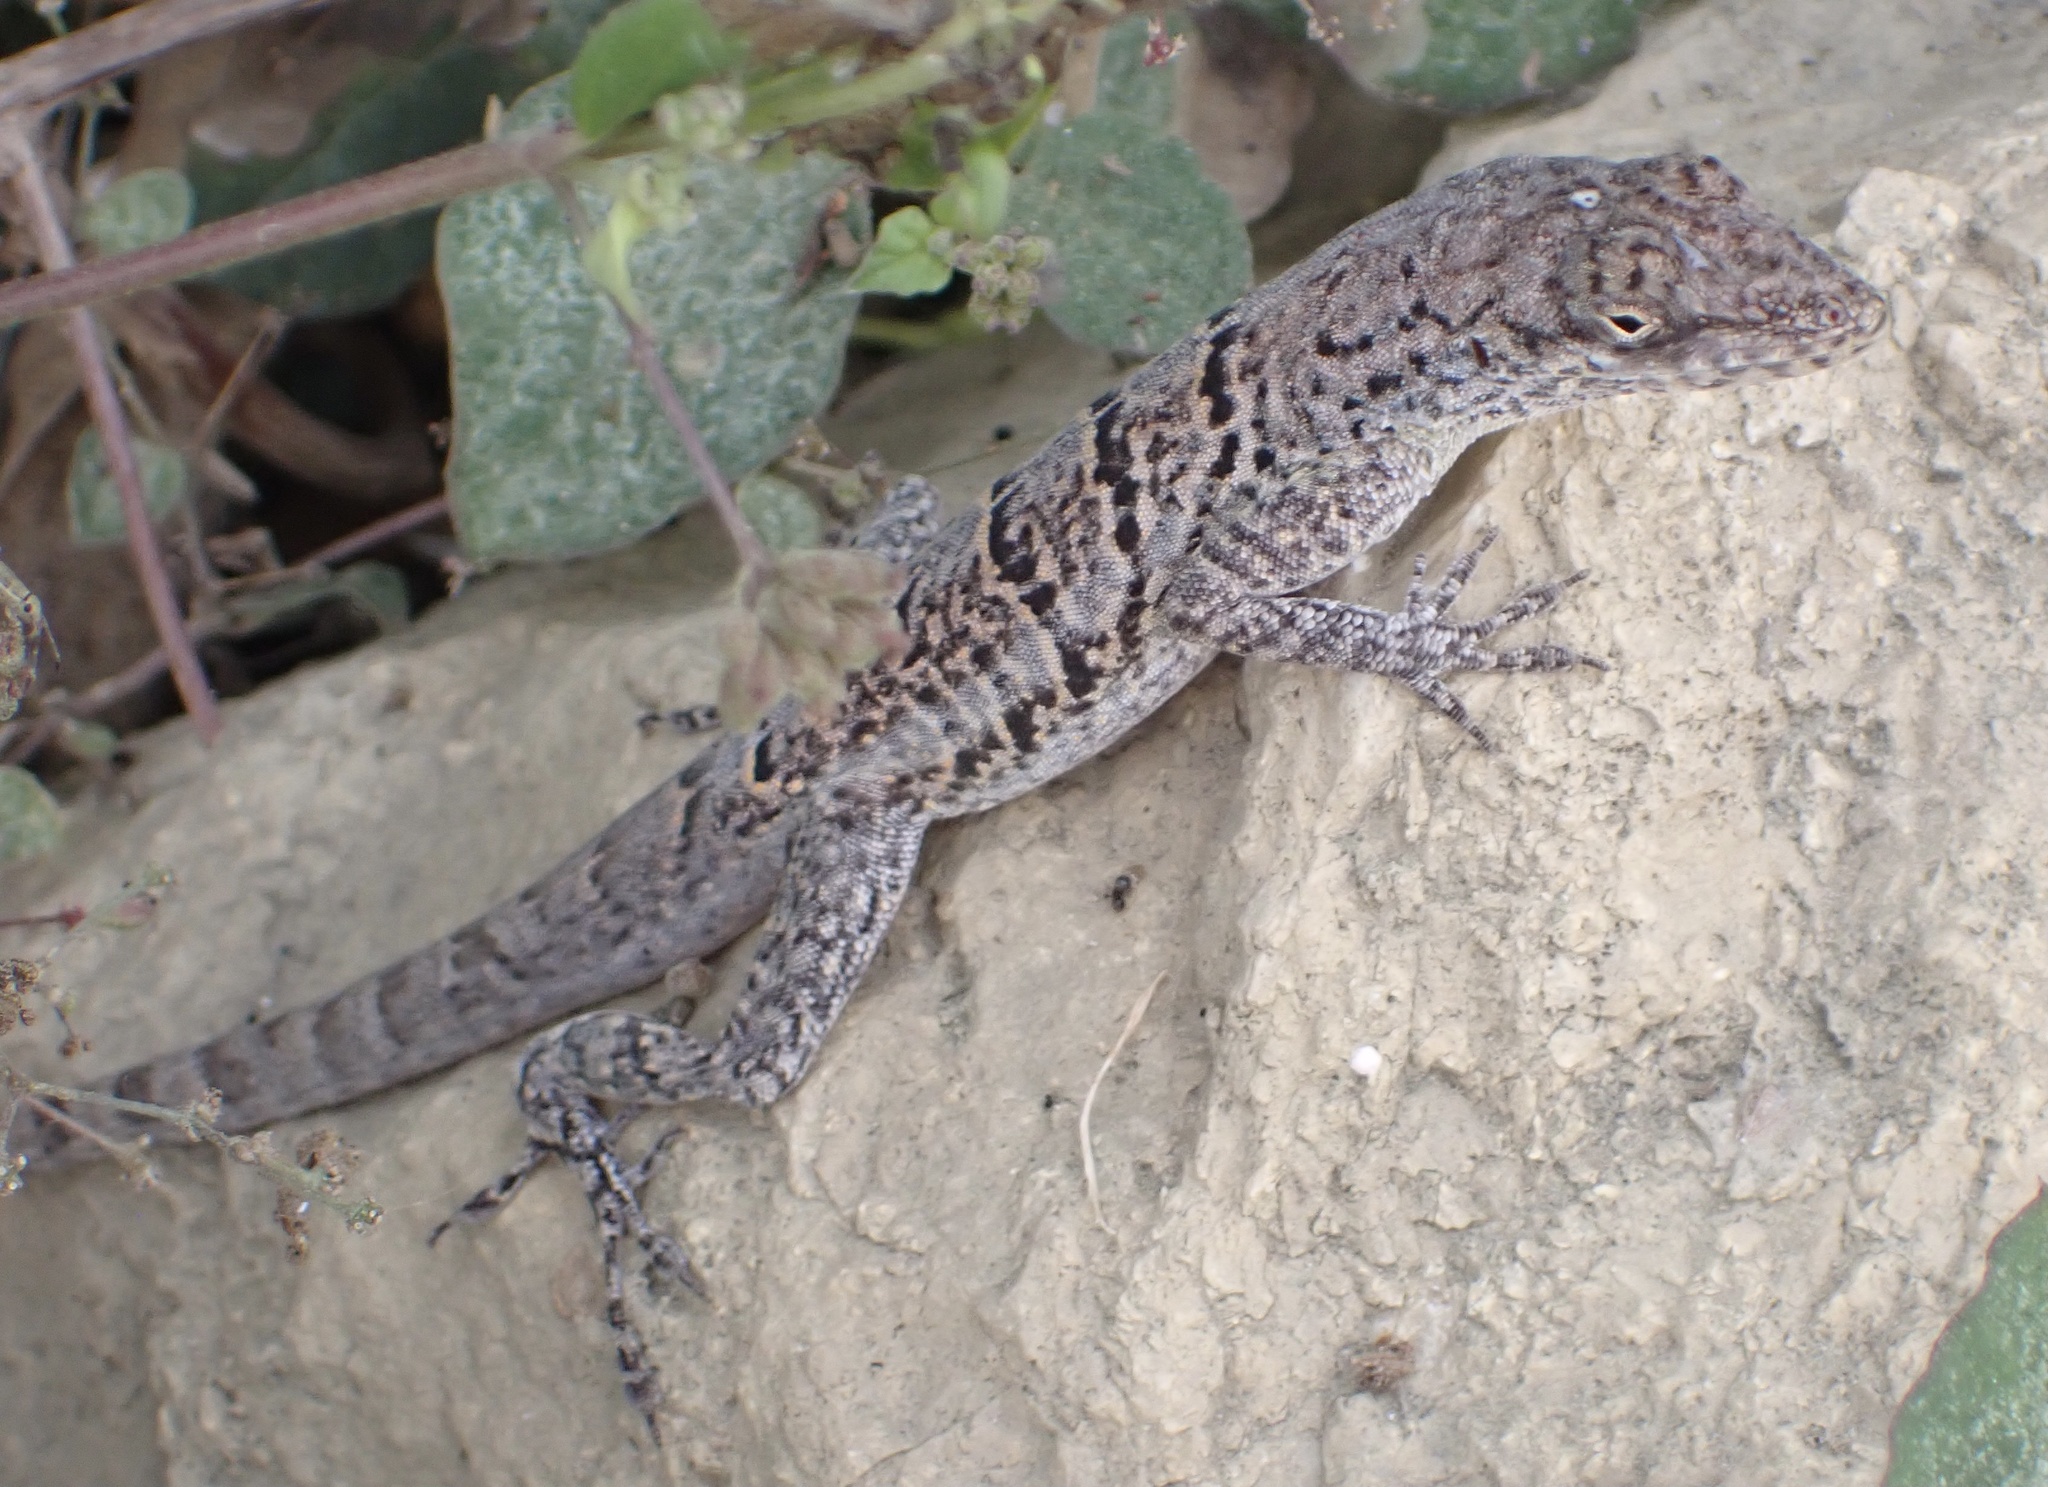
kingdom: Animalia
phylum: Chordata
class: Squamata
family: Dactyloidae
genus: Anolis
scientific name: Anolis bonairensis
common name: Ruthven's anole
